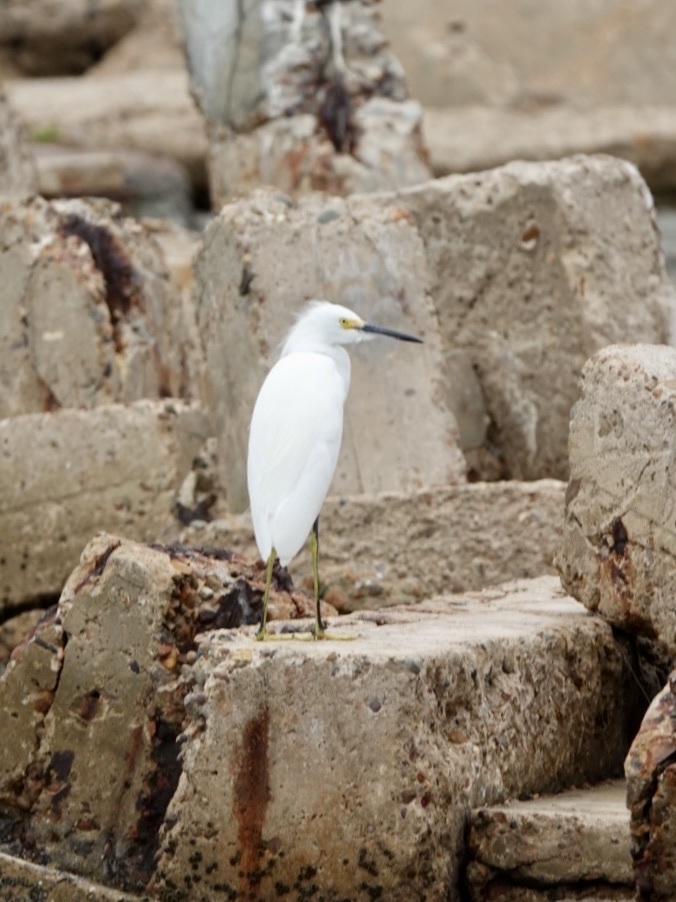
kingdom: Animalia
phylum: Chordata
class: Aves
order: Pelecaniformes
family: Ardeidae
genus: Egretta
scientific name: Egretta thula
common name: Snowy egret
